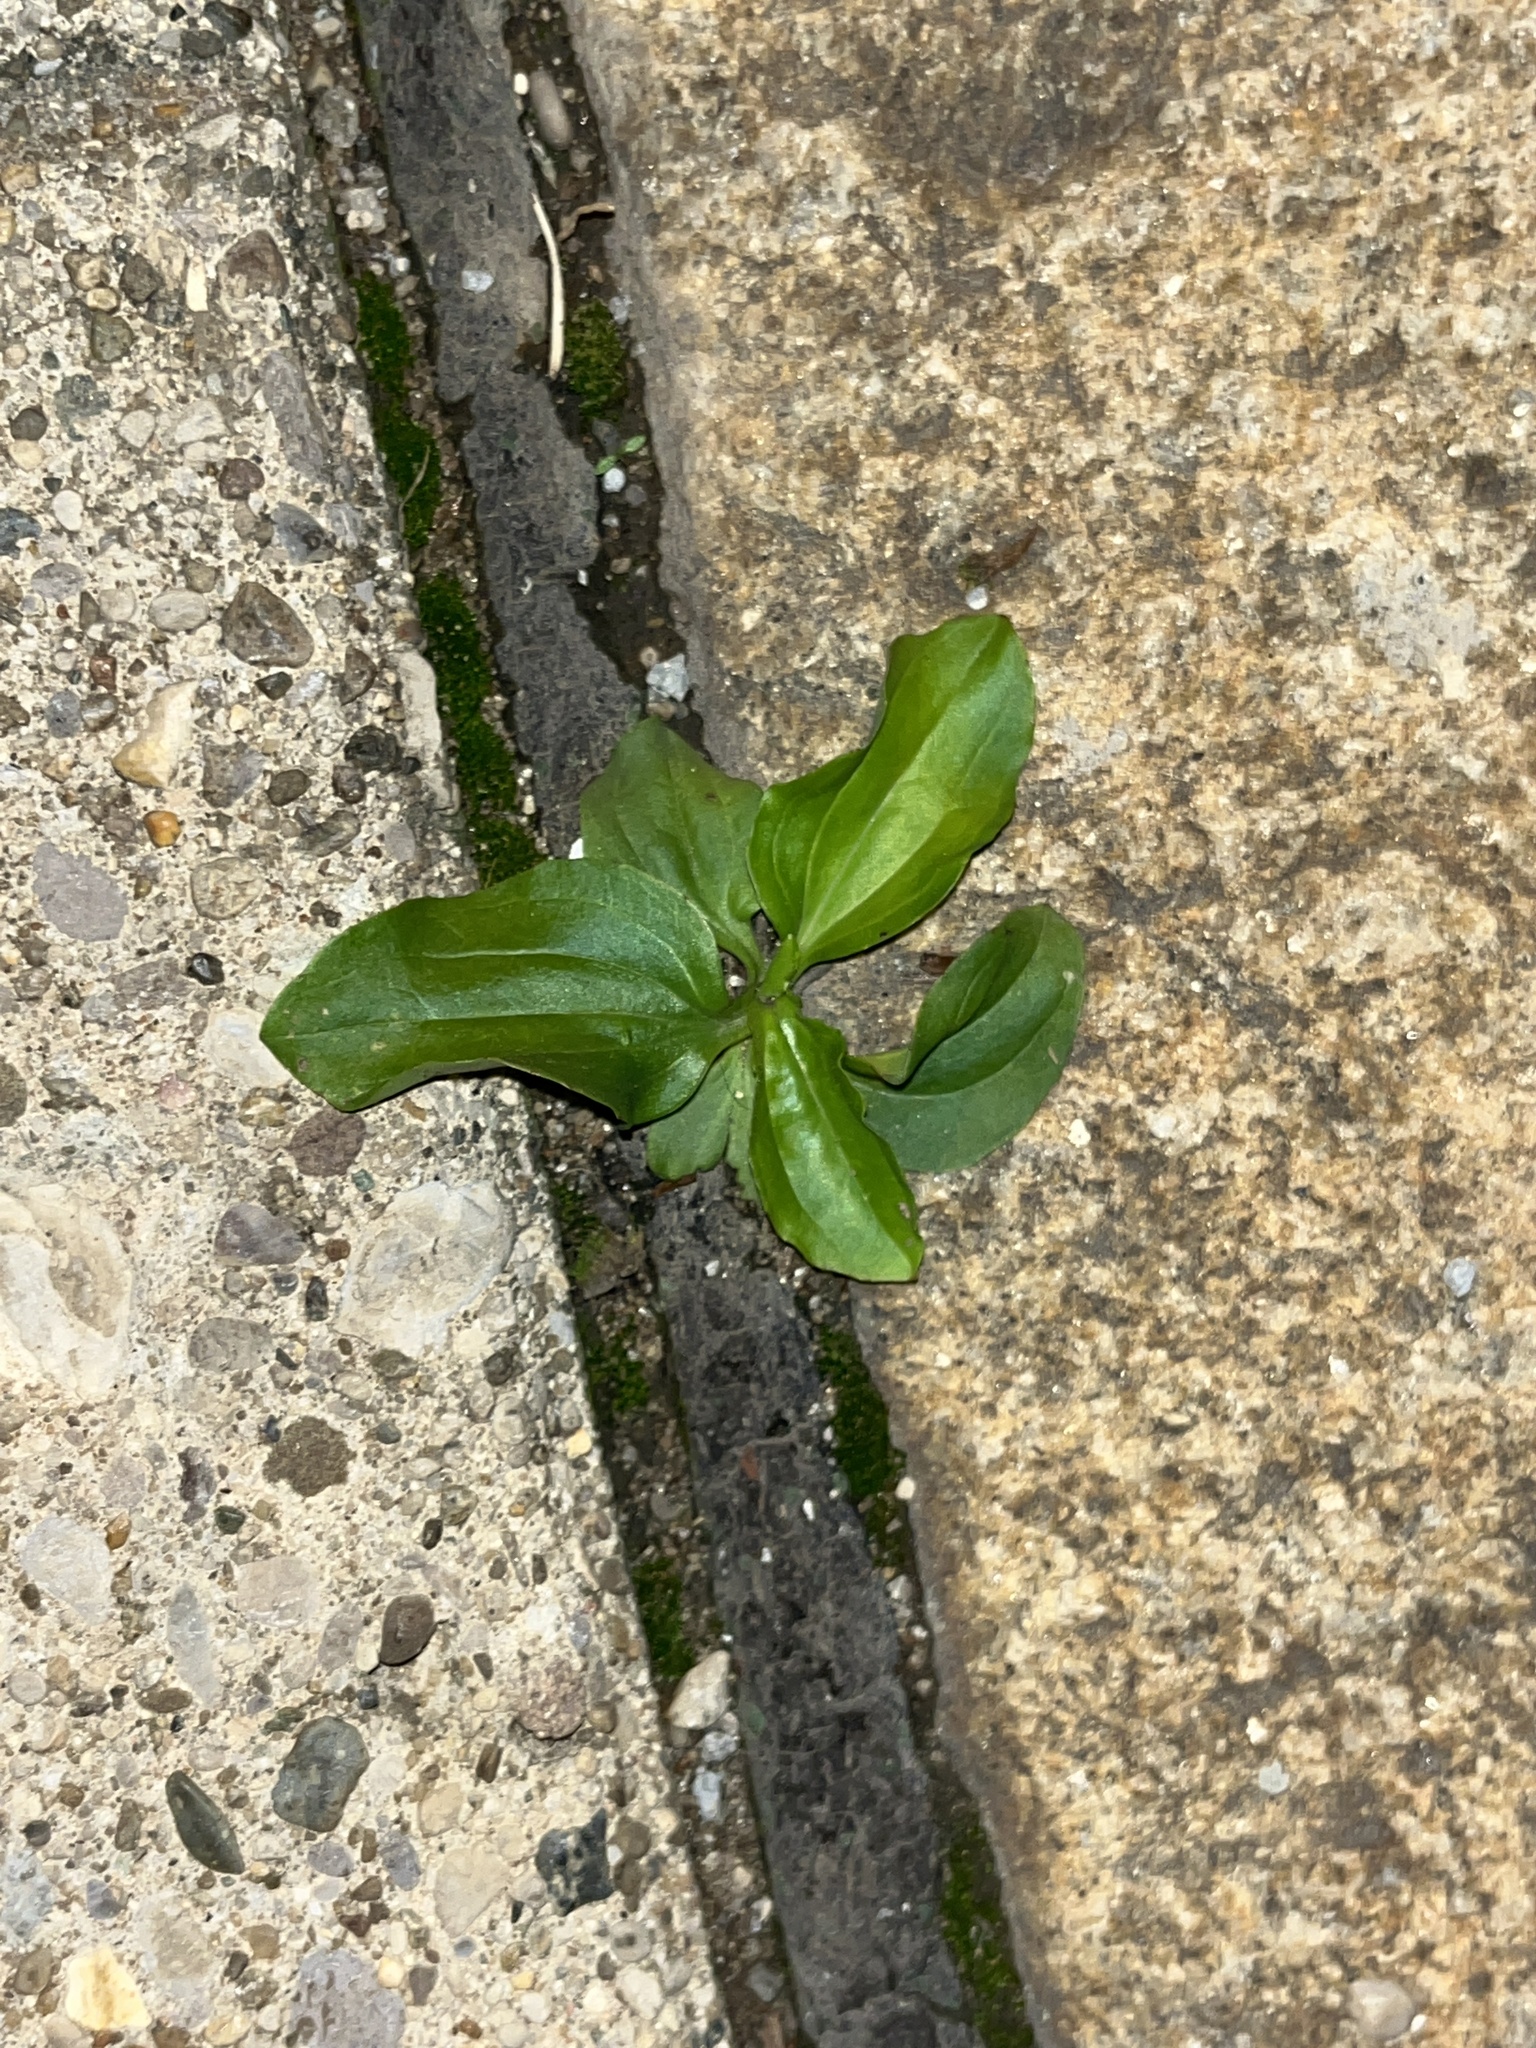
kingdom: Plantae
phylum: Tracheophyta
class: Magnoliopsida
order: Lamiales
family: Plantaginaceae
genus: Plantago
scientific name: Plantago major
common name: Common plantain
